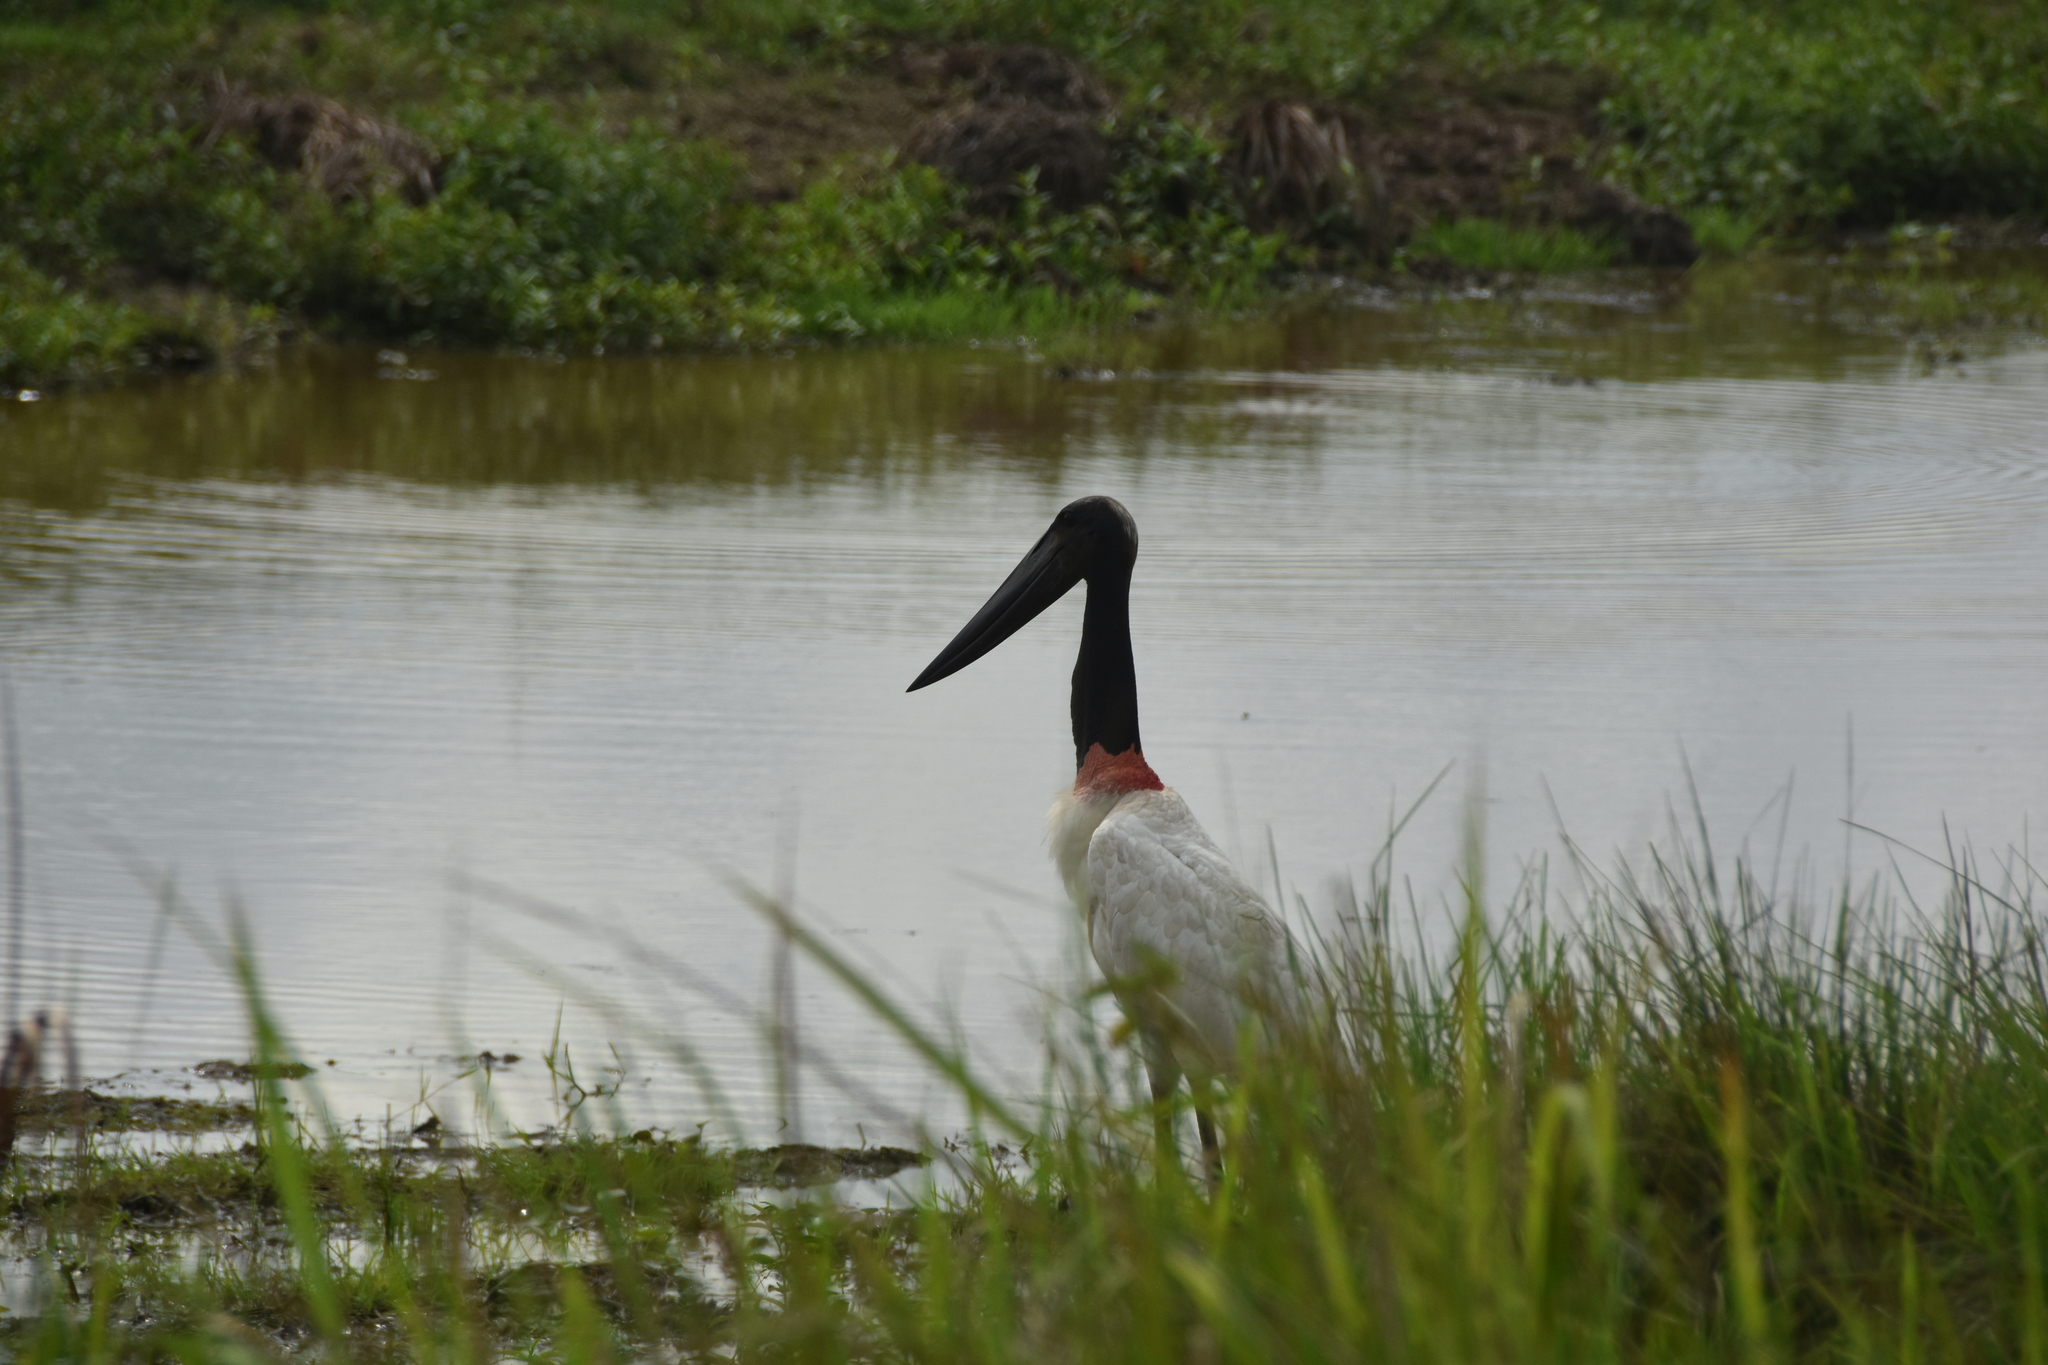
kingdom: Animalia
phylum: Chordata
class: Aves
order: Ciconiiformes
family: Ciconiidae
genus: Jabiru
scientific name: Jabiru mycteria
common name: Jabiru
